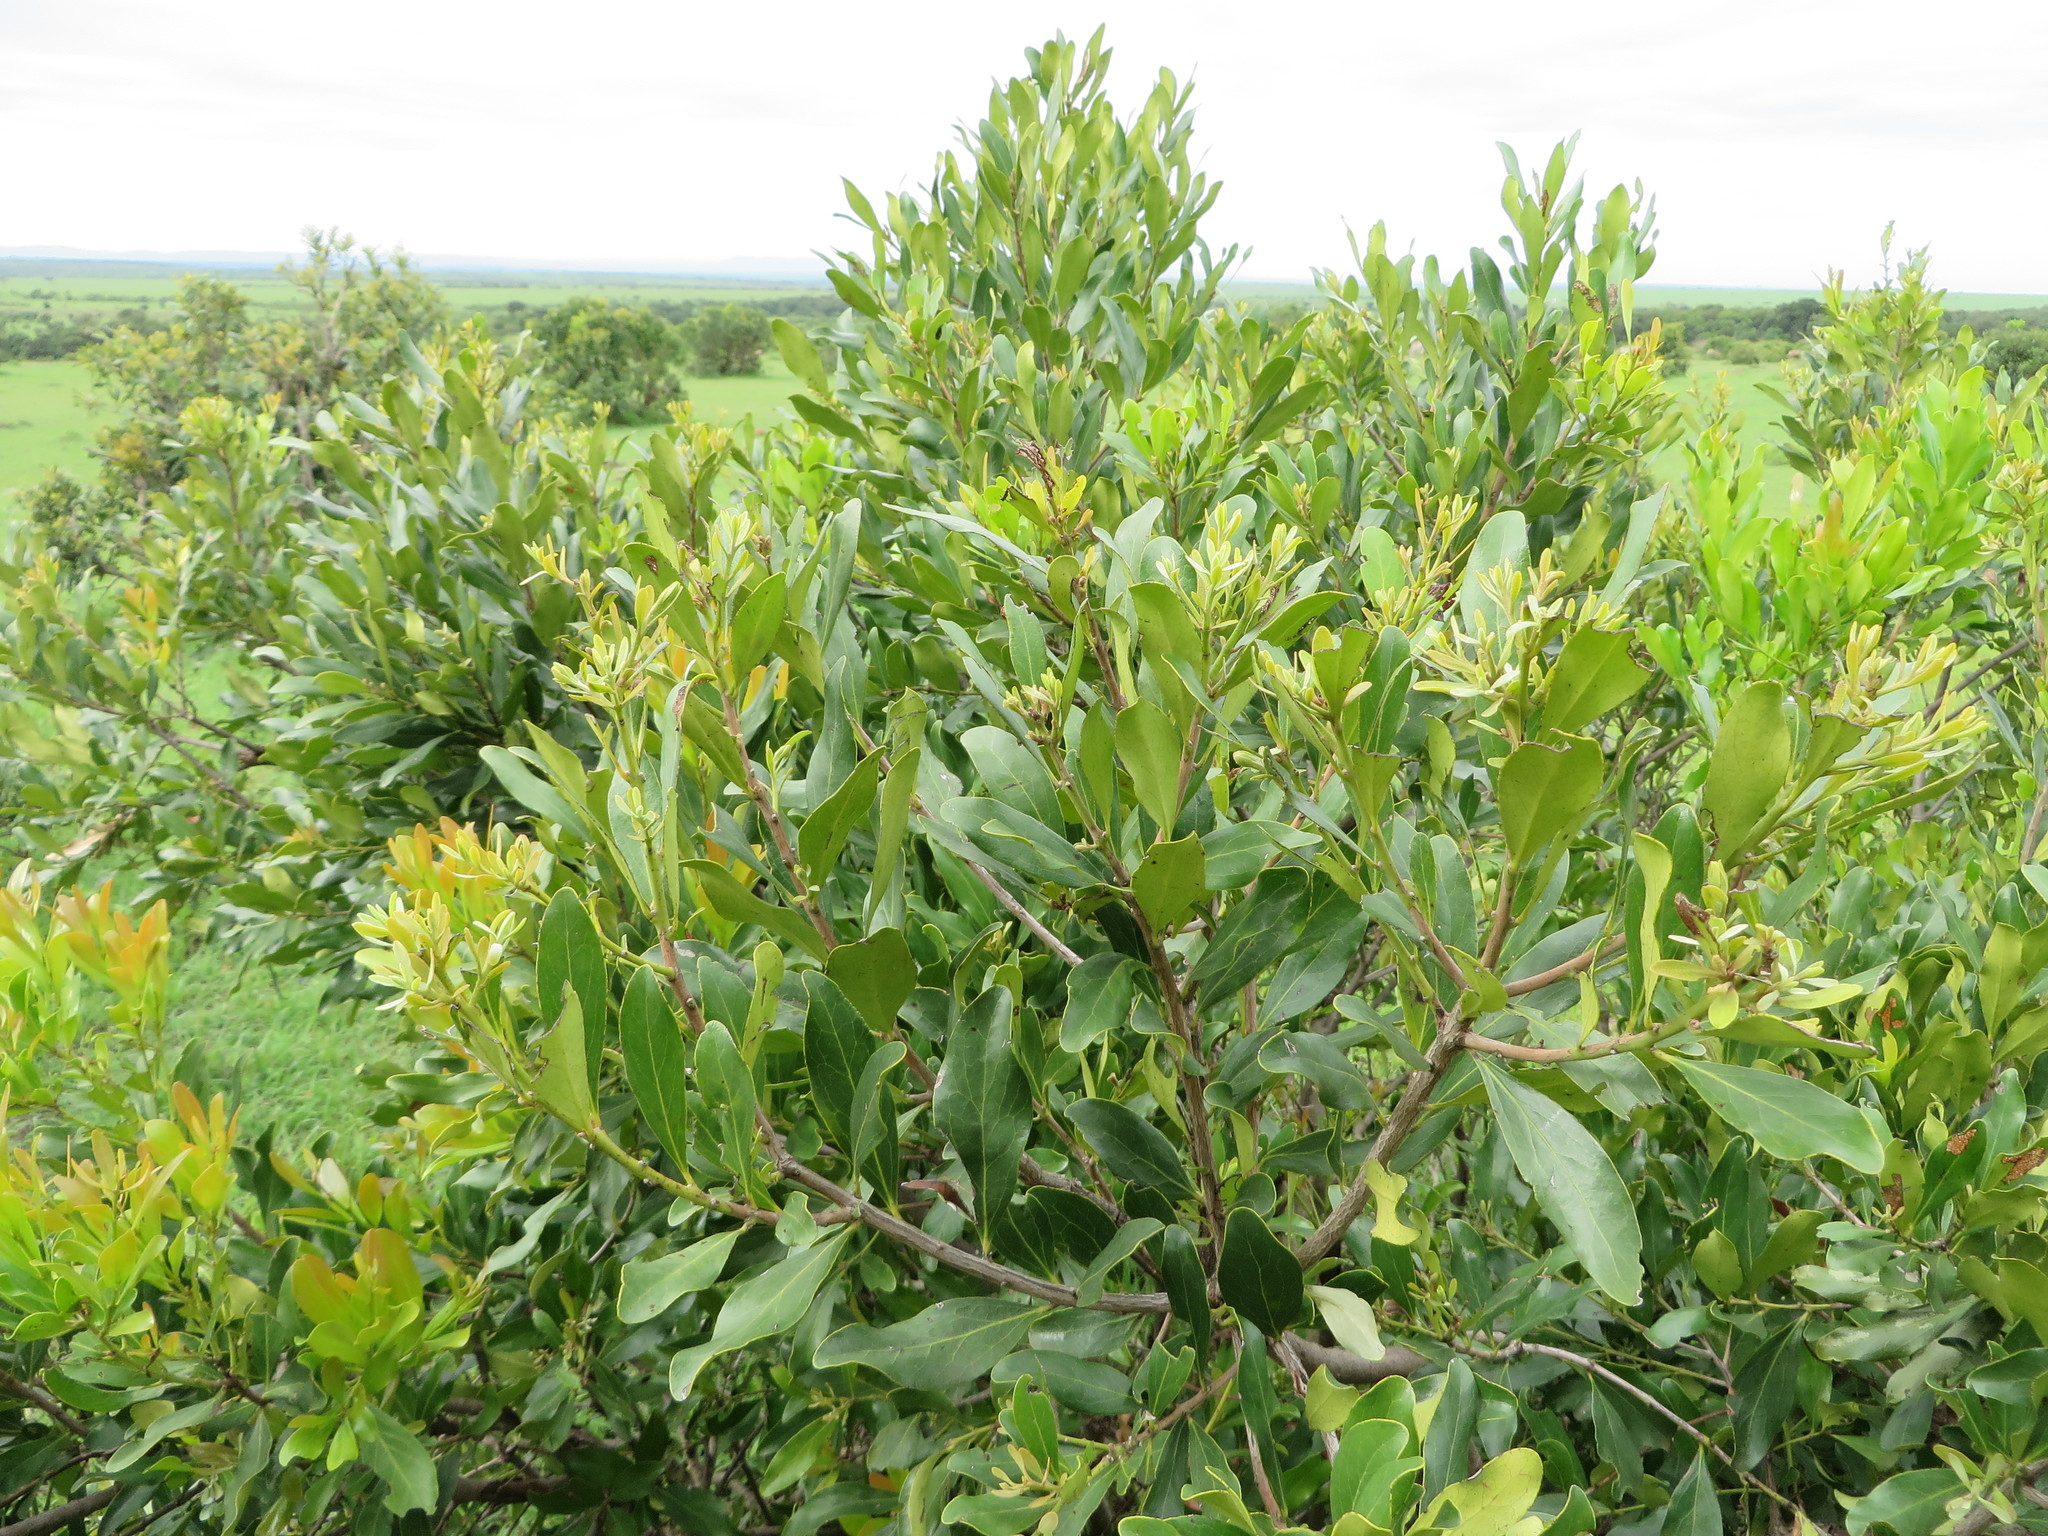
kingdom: Plantae
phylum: Tracheophyta
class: Magnoliopsida
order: Ericales
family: Ebenaceae
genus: Euclea
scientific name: Euclea divinorum
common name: Diamond-leaved euclea
